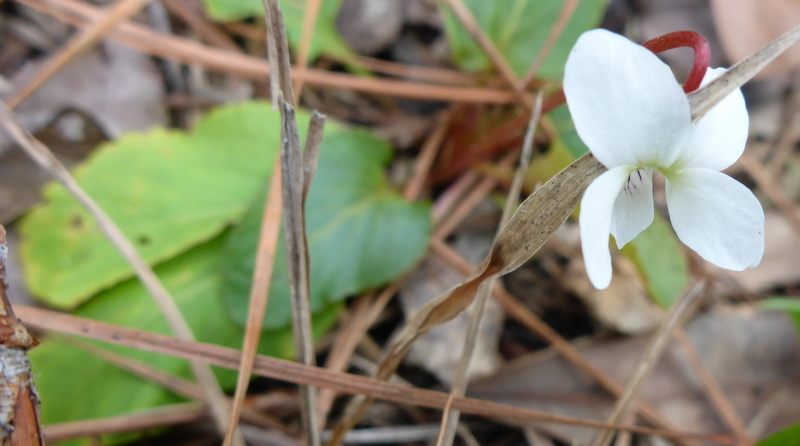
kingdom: Plantae
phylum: Tracheophyta
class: Magnoliopsida
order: Malpighiales
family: Violaceae
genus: Viola
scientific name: Viola primulifolia
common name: Primrose-leaf violet
